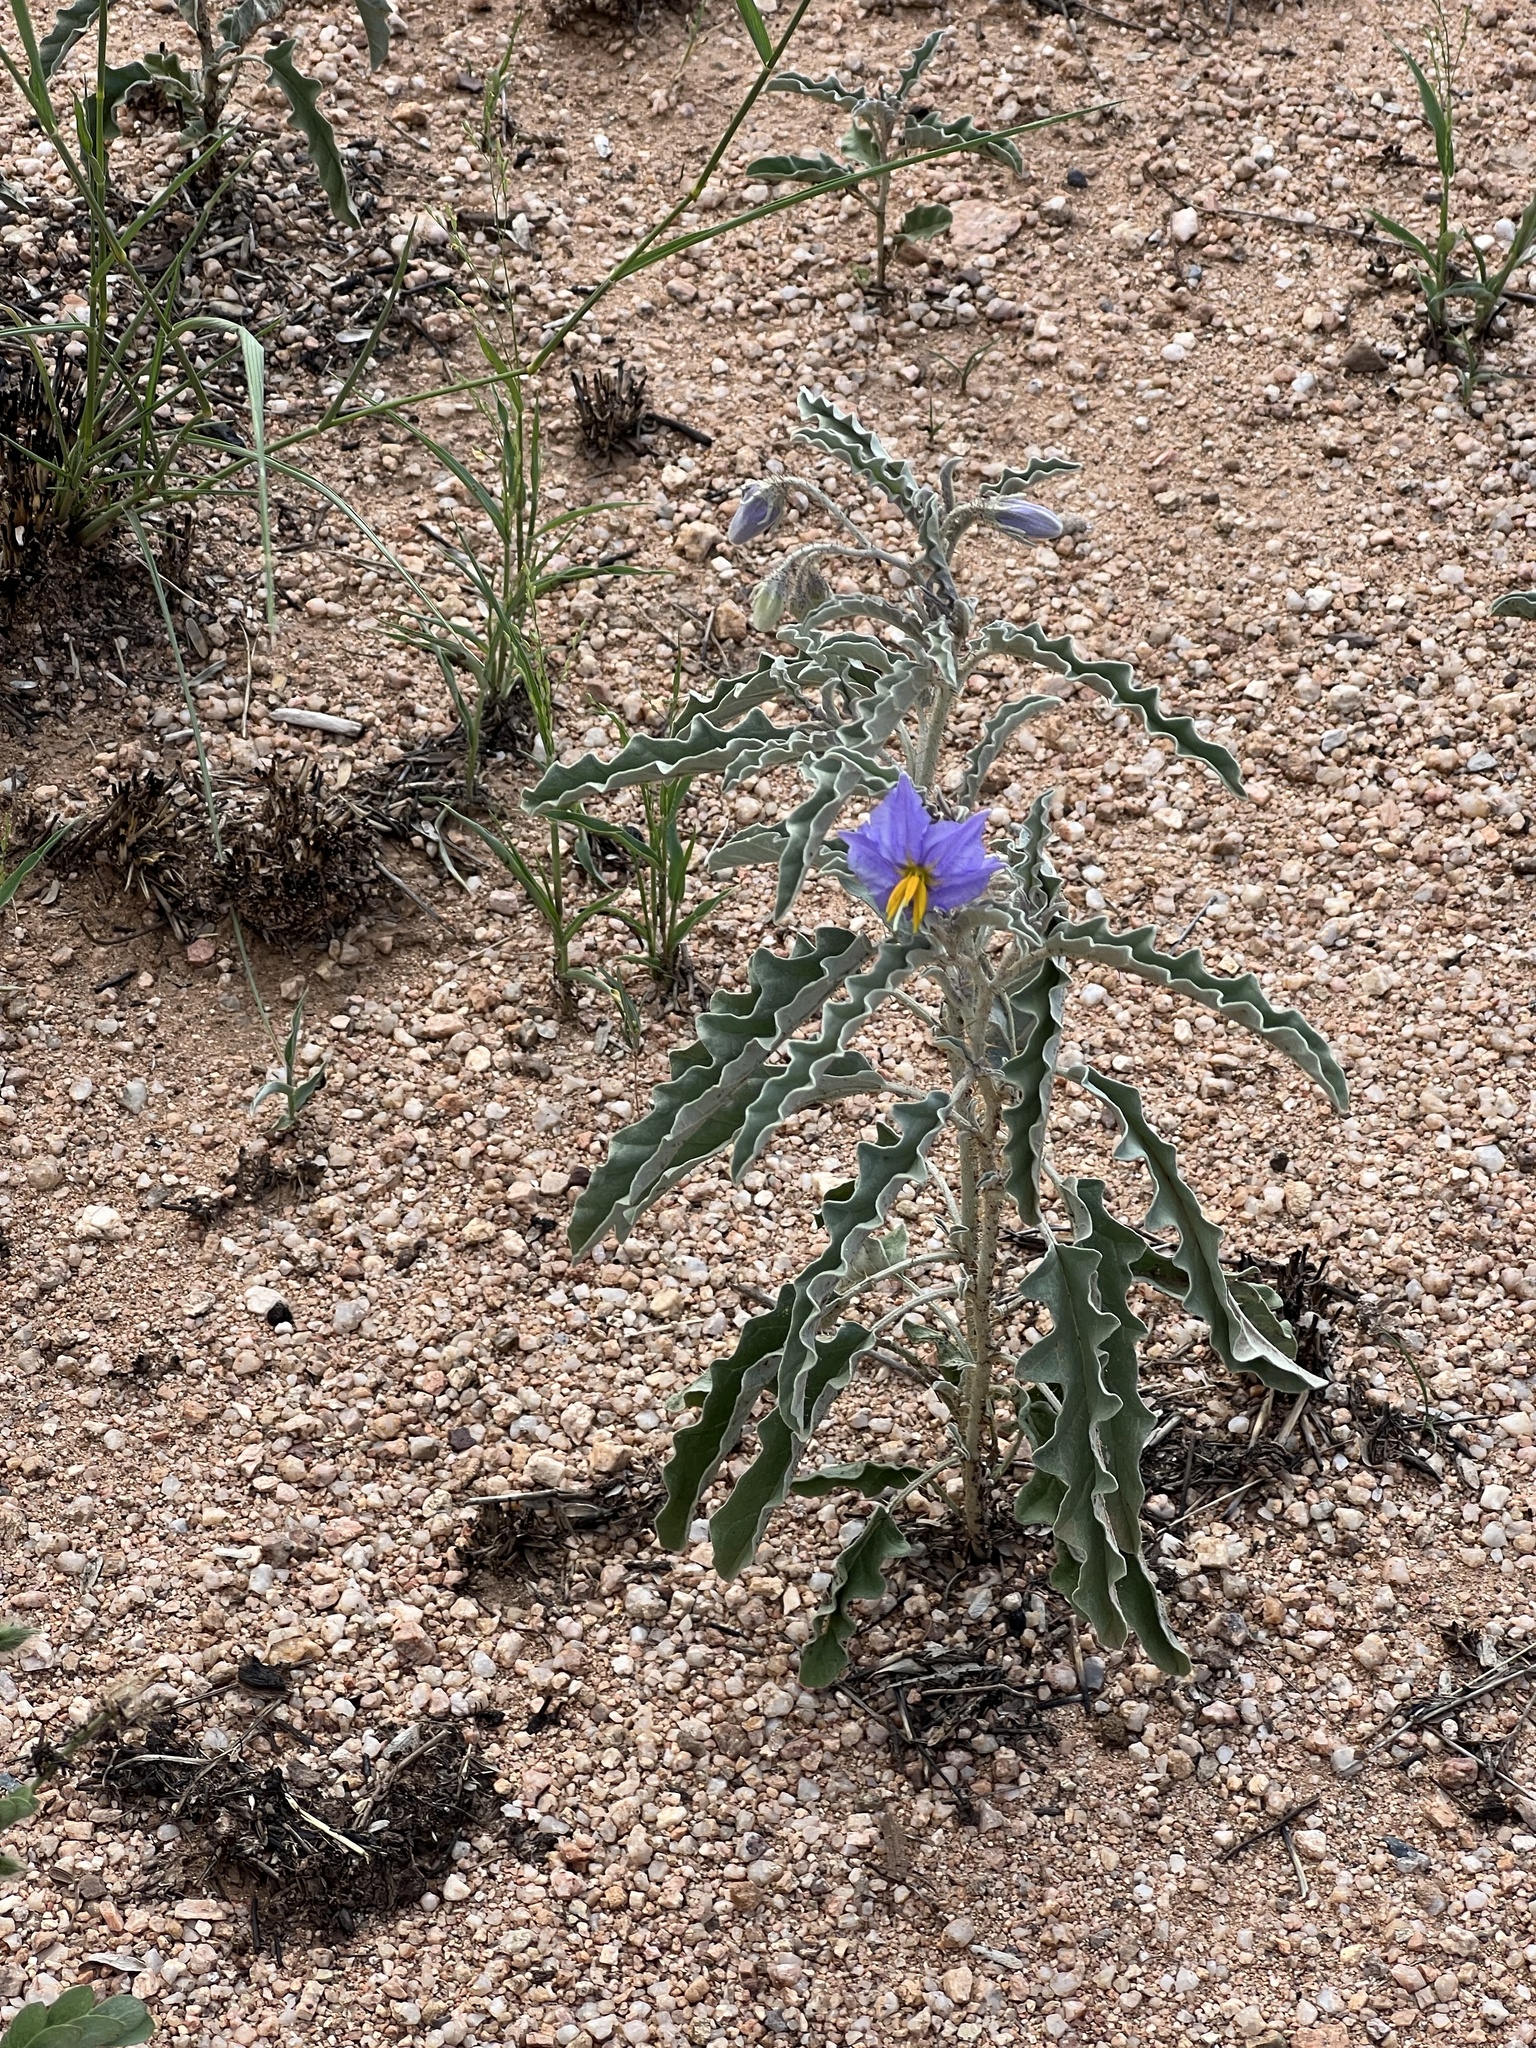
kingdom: Plantae
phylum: Tracheophyta
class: Magnoliopsida
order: Solanales
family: Solanaceae
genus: Solanum
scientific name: Solanum elaeagnifolium
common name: Silverleaf nightshade
